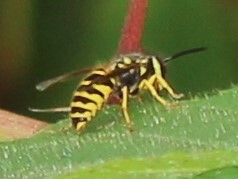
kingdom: Animalia
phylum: Arthropoda
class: Insecta
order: Hymenoptera
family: Vespidae
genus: Vespula
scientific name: Vespula maculifrons
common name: Eastern yellowjacket
